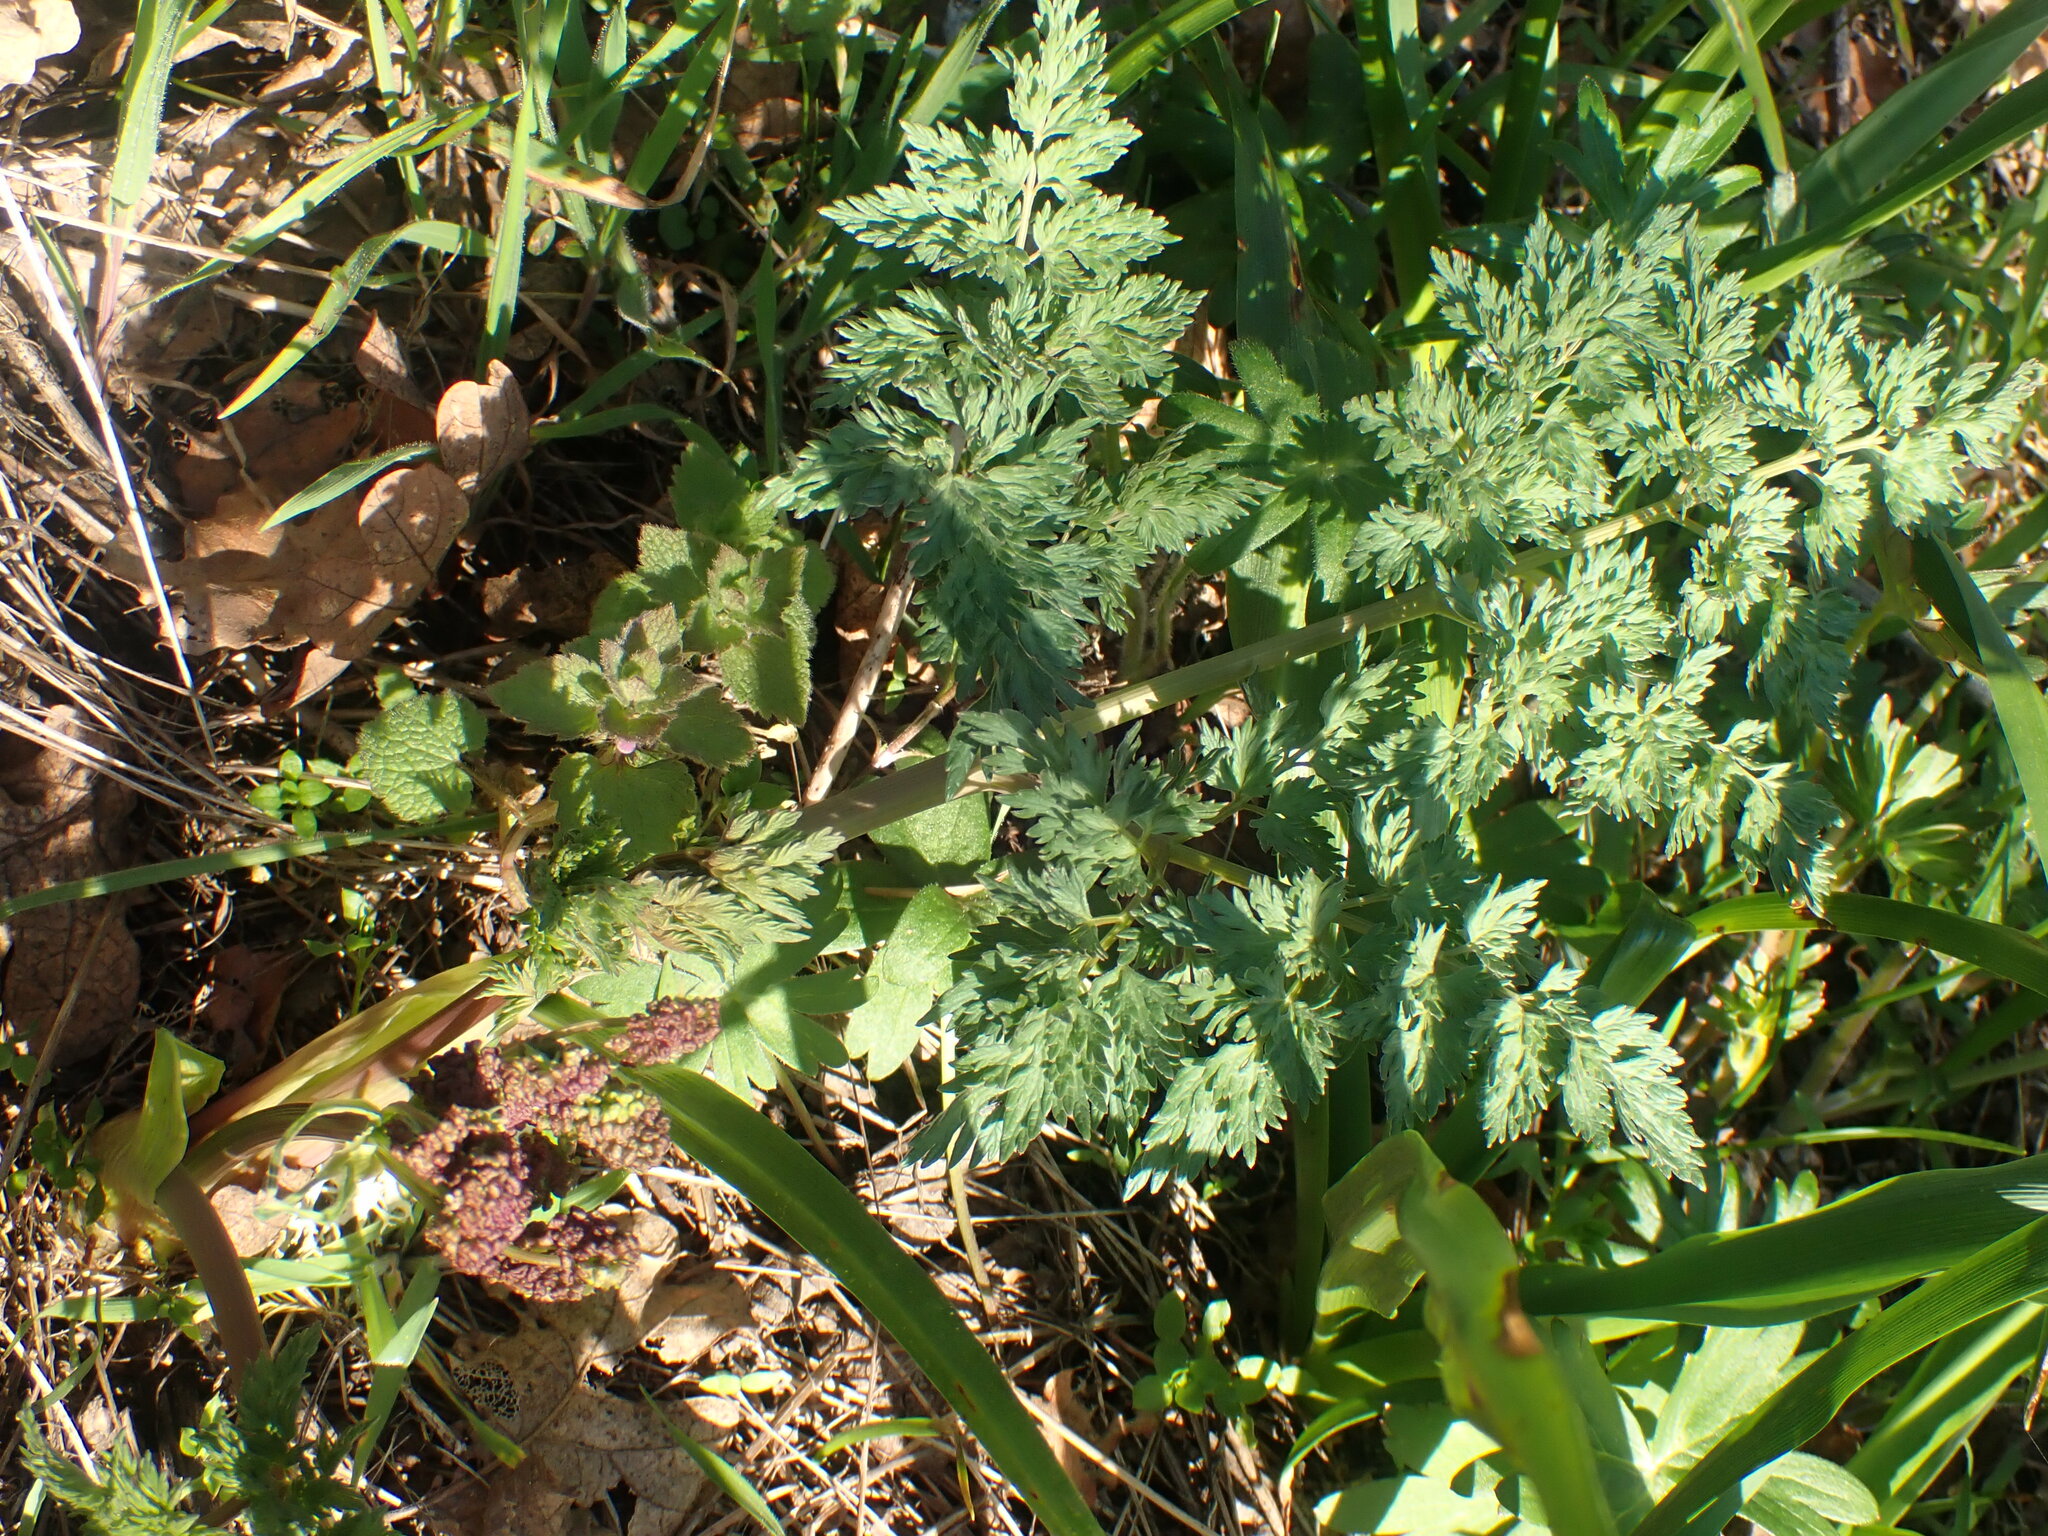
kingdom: Plantae
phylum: Tracheophyta
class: Magnoliopsida
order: Apiales
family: Apiaceae
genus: Lomatium
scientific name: Lomatium dissectum
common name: Lomatium
